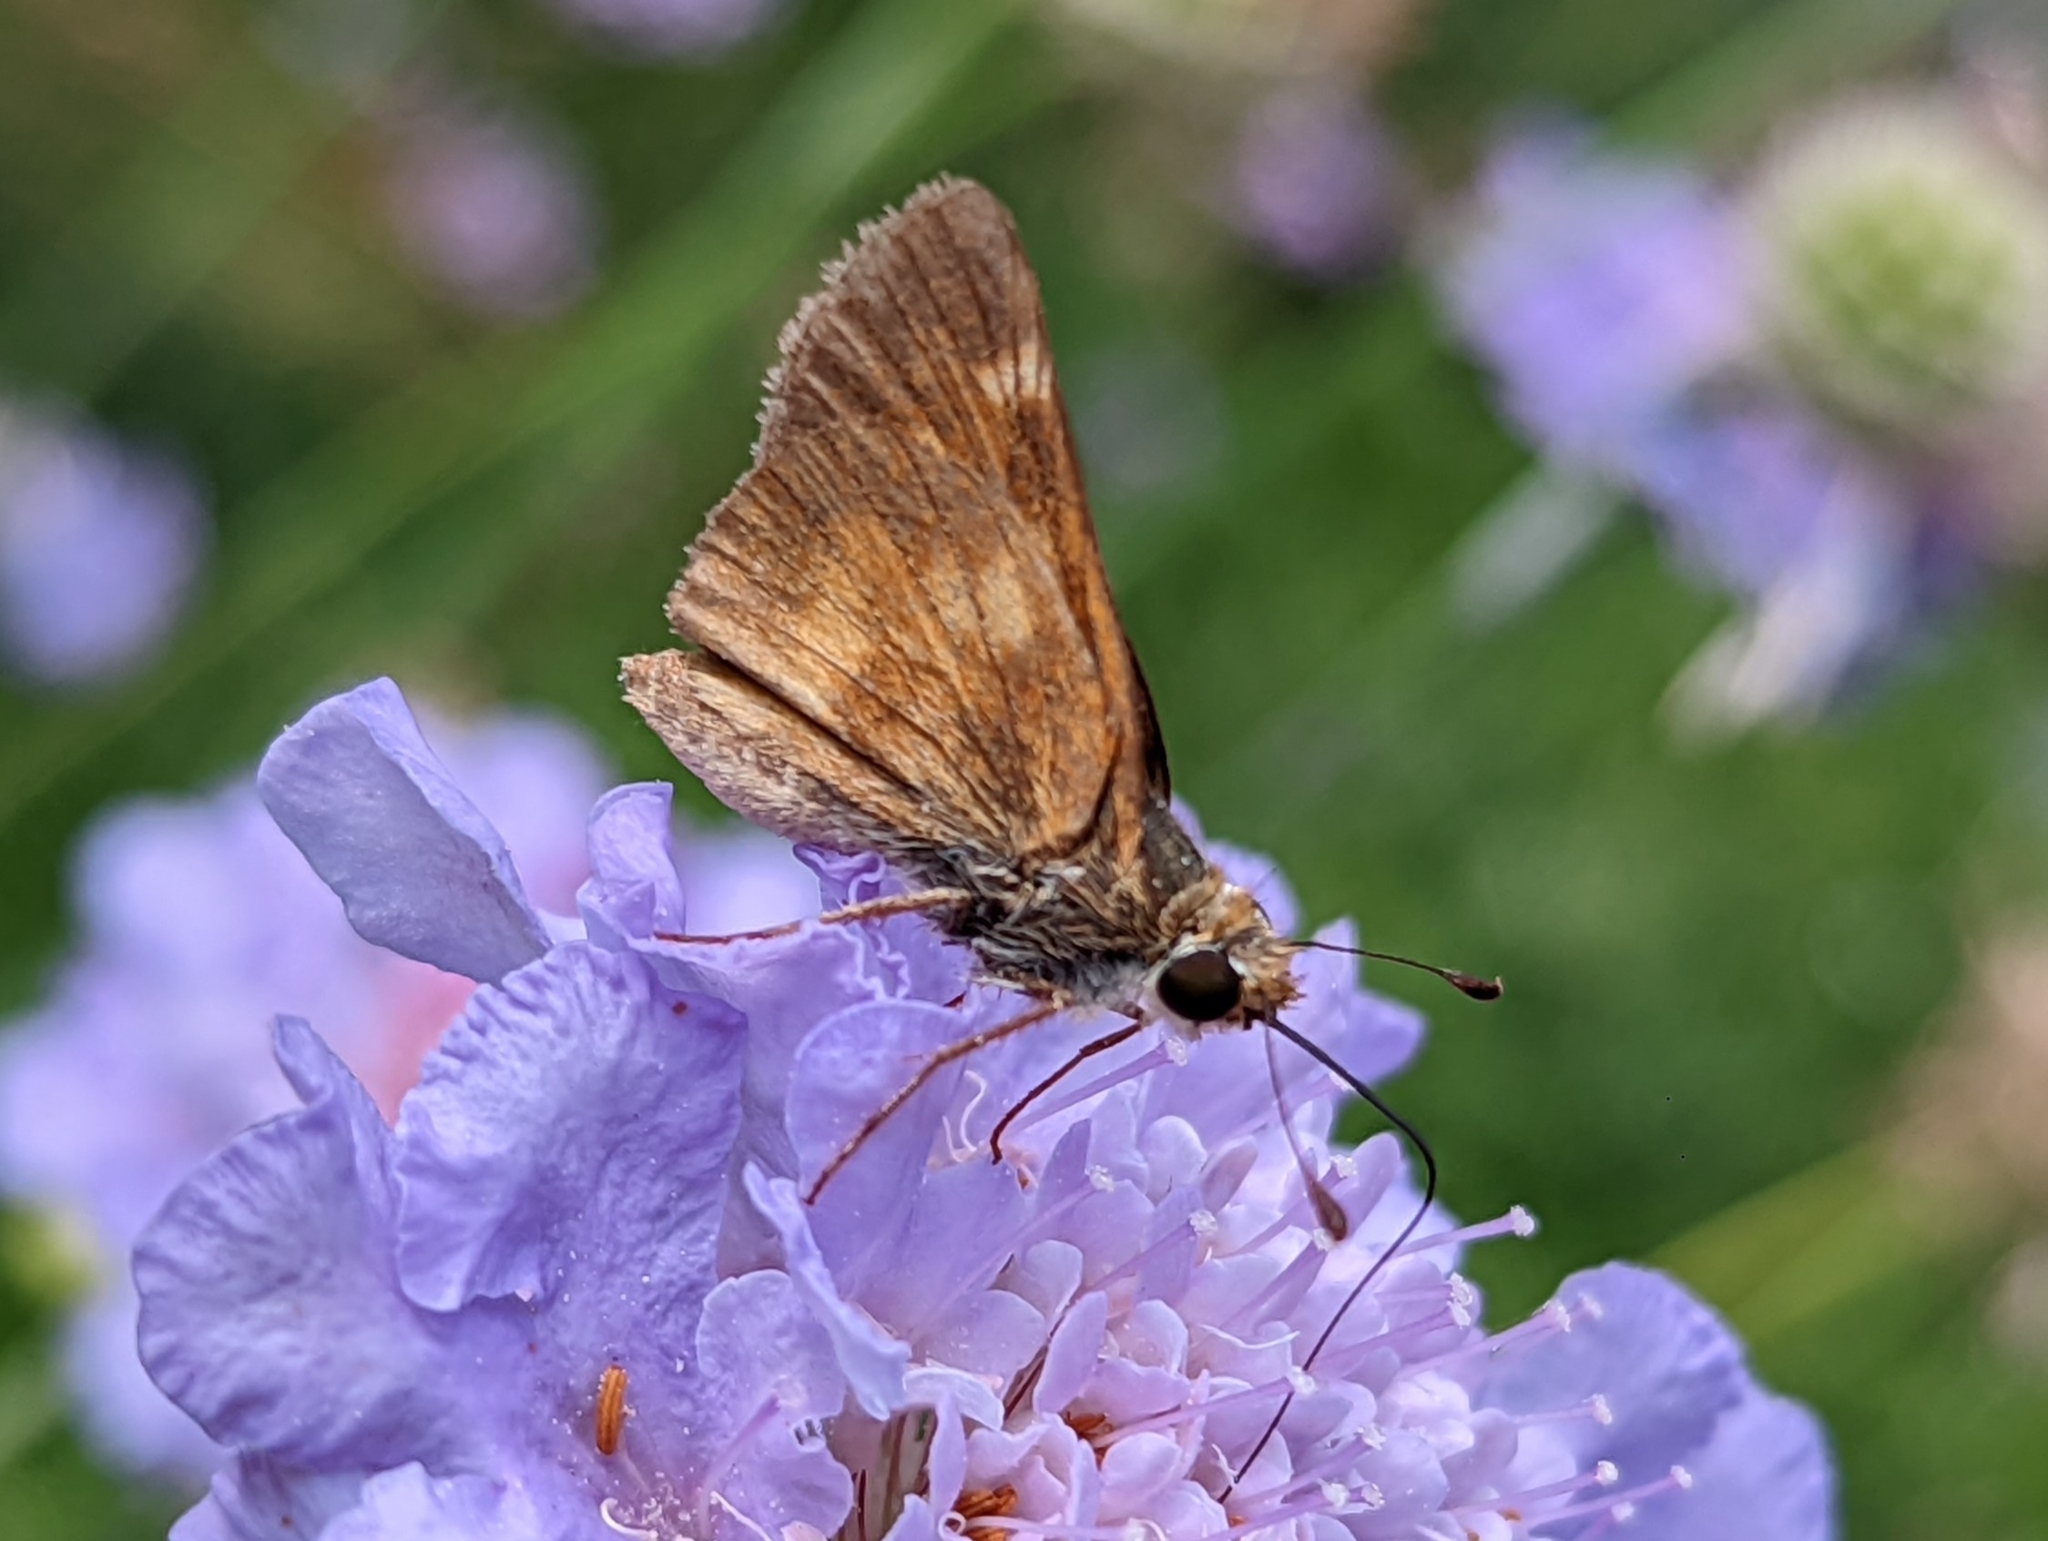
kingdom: Animalia
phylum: Arthropoda
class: Insecta
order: Lepidoptera
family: Hesperiidae
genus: Lon
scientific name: Lon melane
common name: Umber skipper
